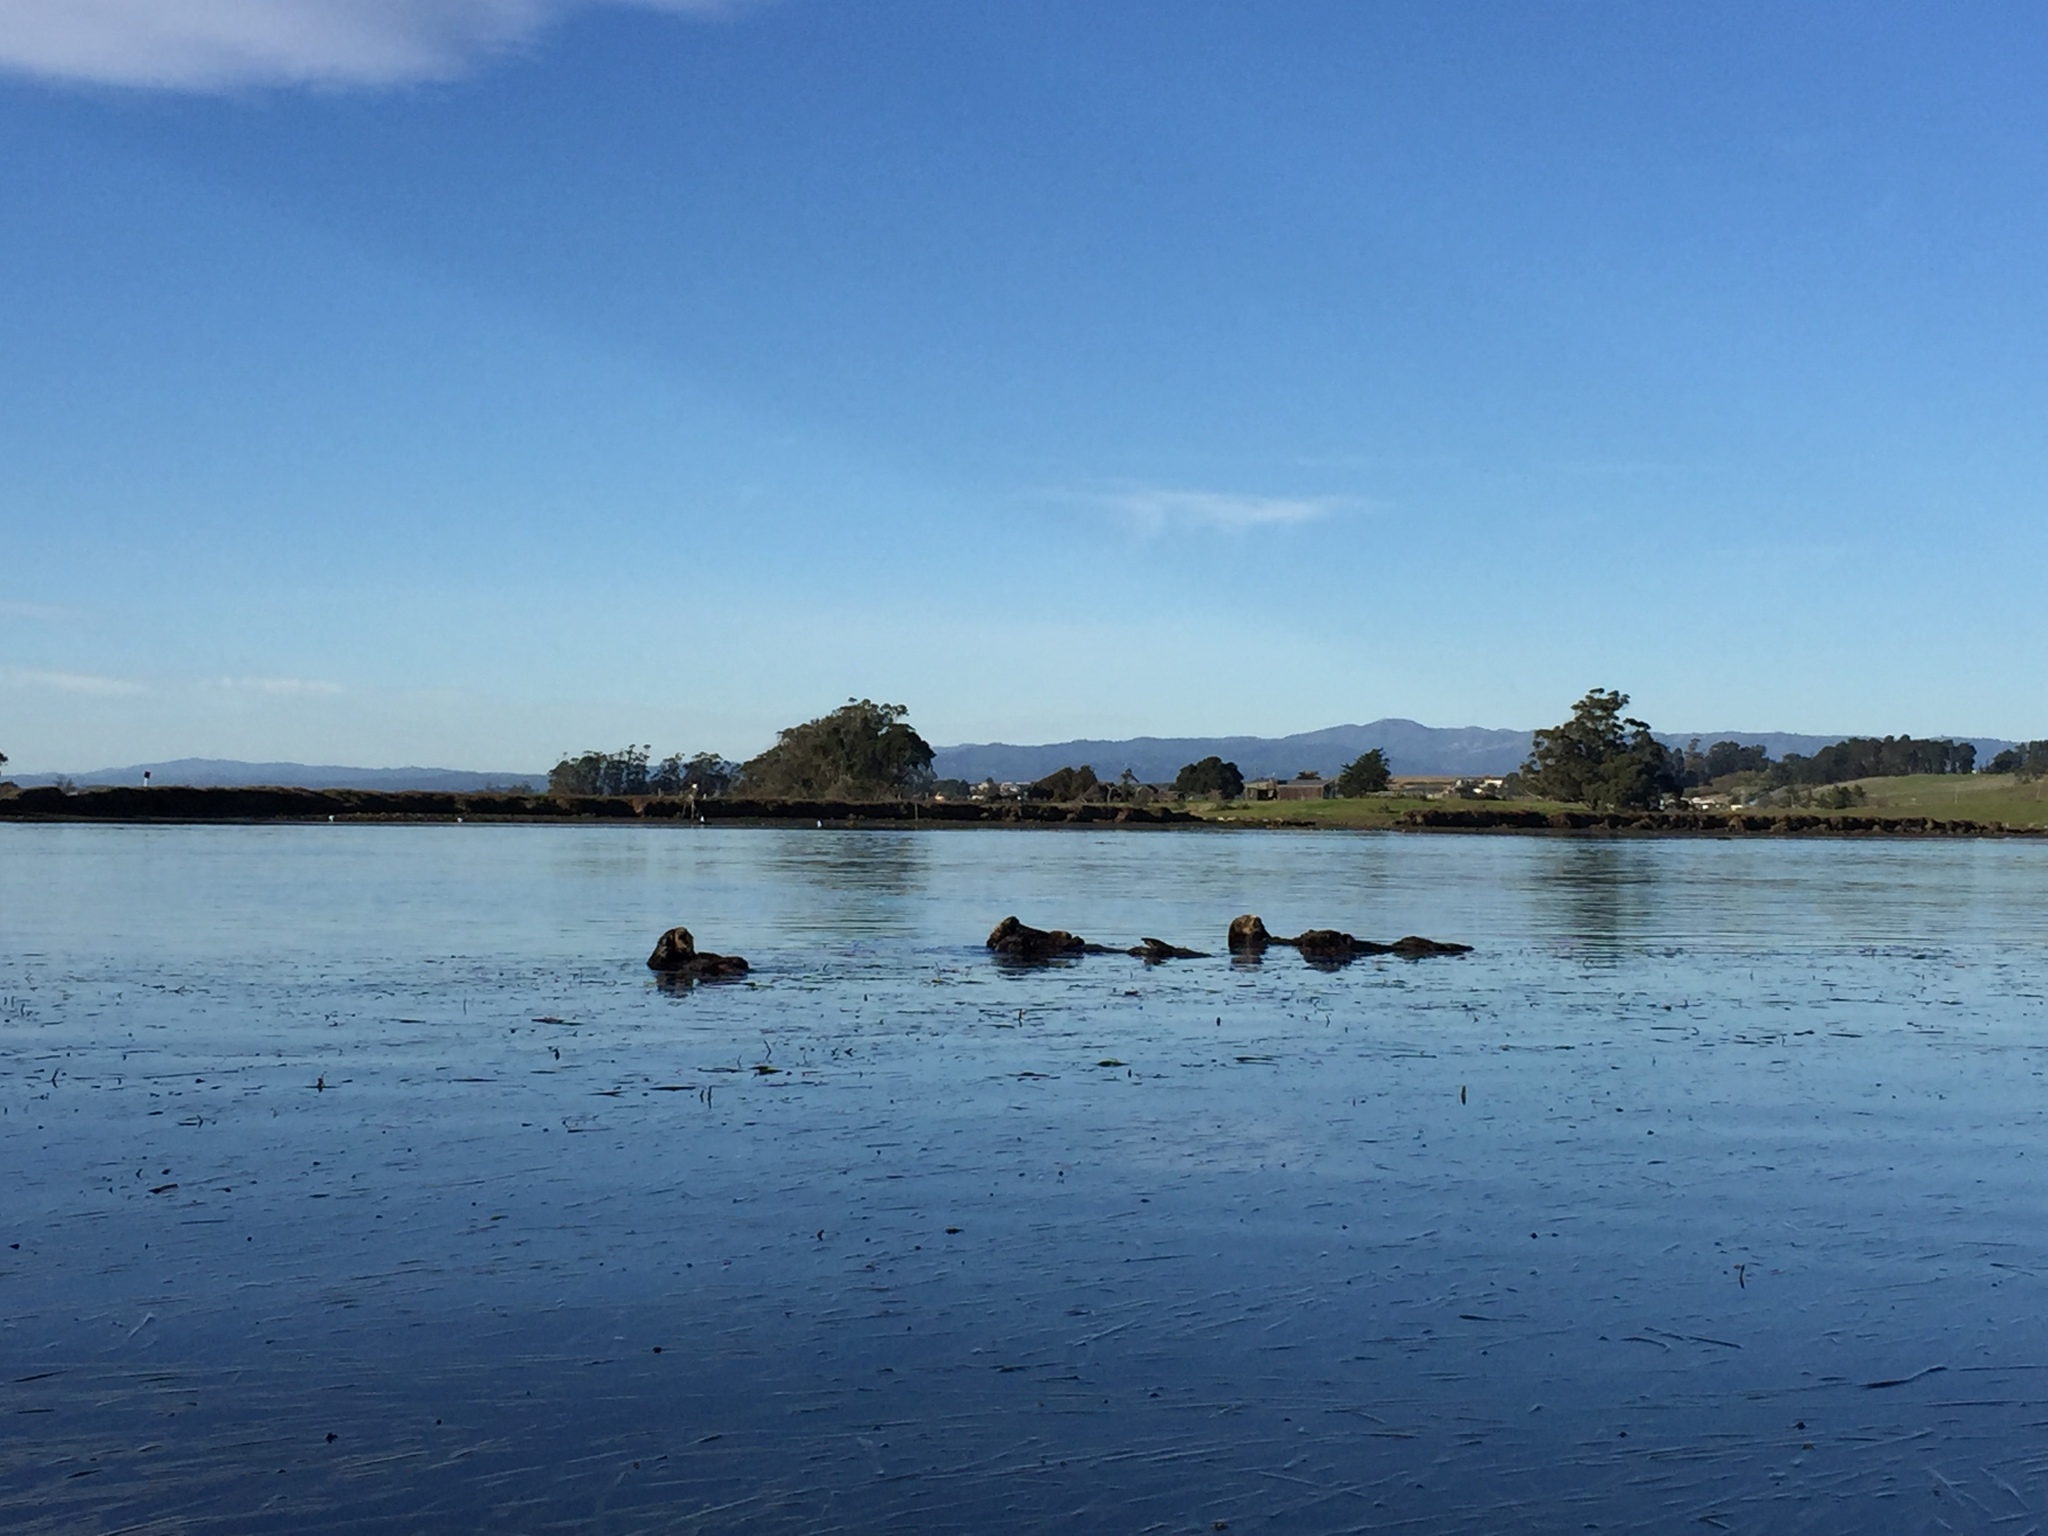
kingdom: Animalia
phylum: Chordata
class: Mammalia
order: Carnivora
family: Mustelidae
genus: Enhydra
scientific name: Enhydra lutris
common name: Sea otter
